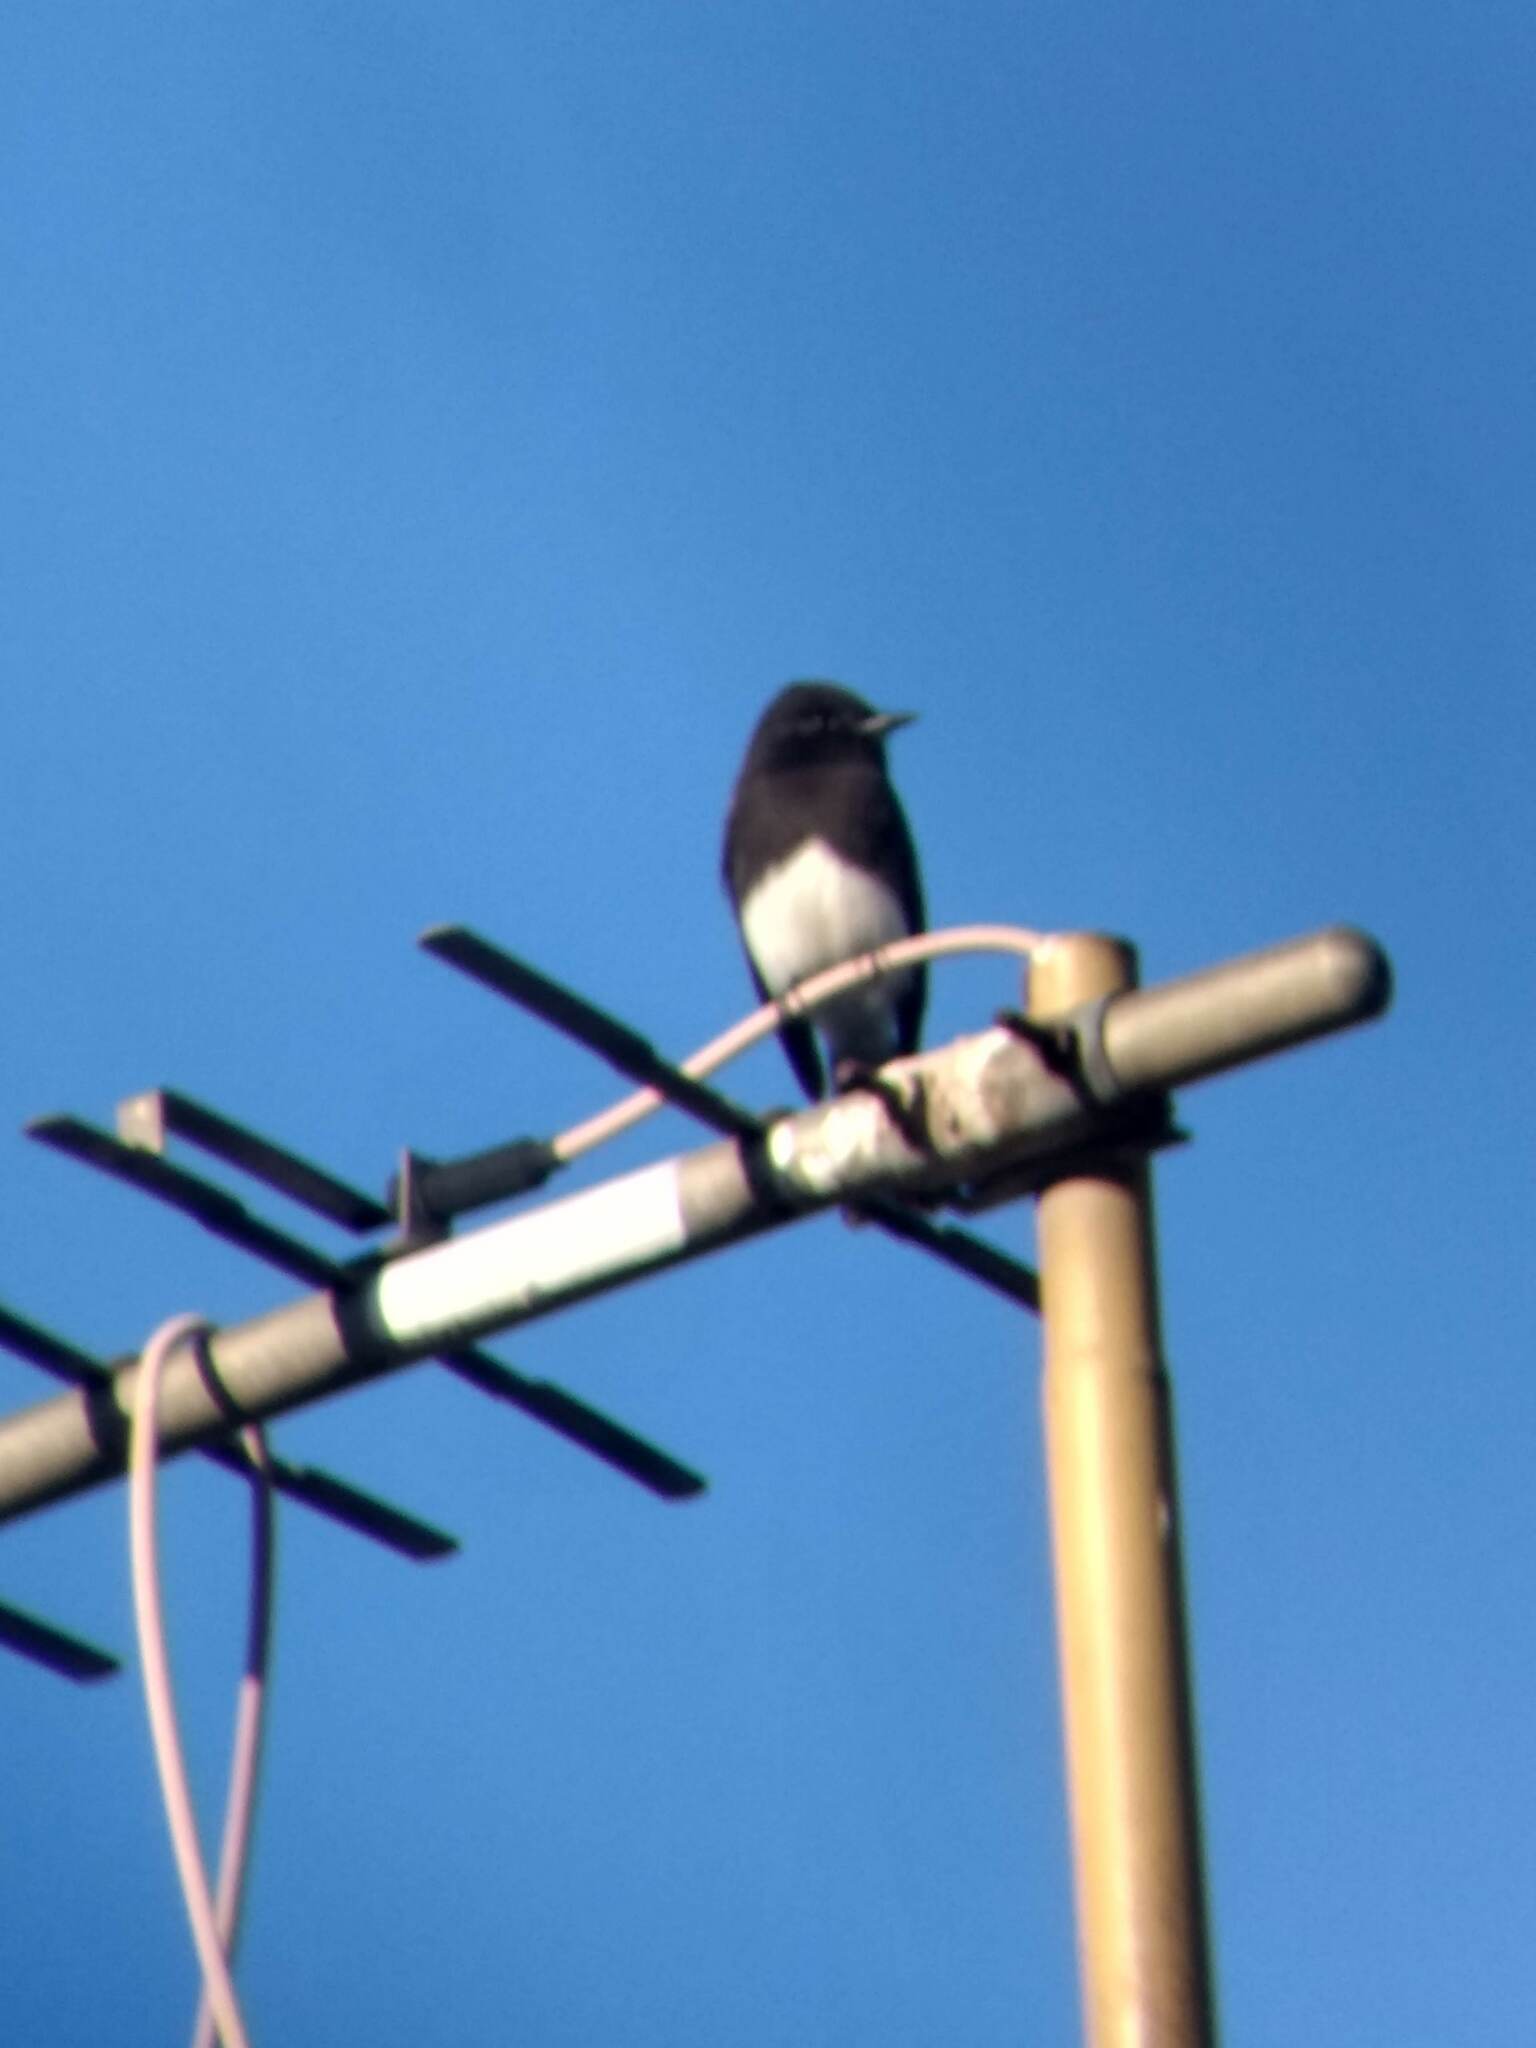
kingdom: Animalia
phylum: Chordata
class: Aves
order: Passeriformes
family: Tyrannidae
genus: Sayornis
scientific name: Sayornis nigricans
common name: Black phoebe
